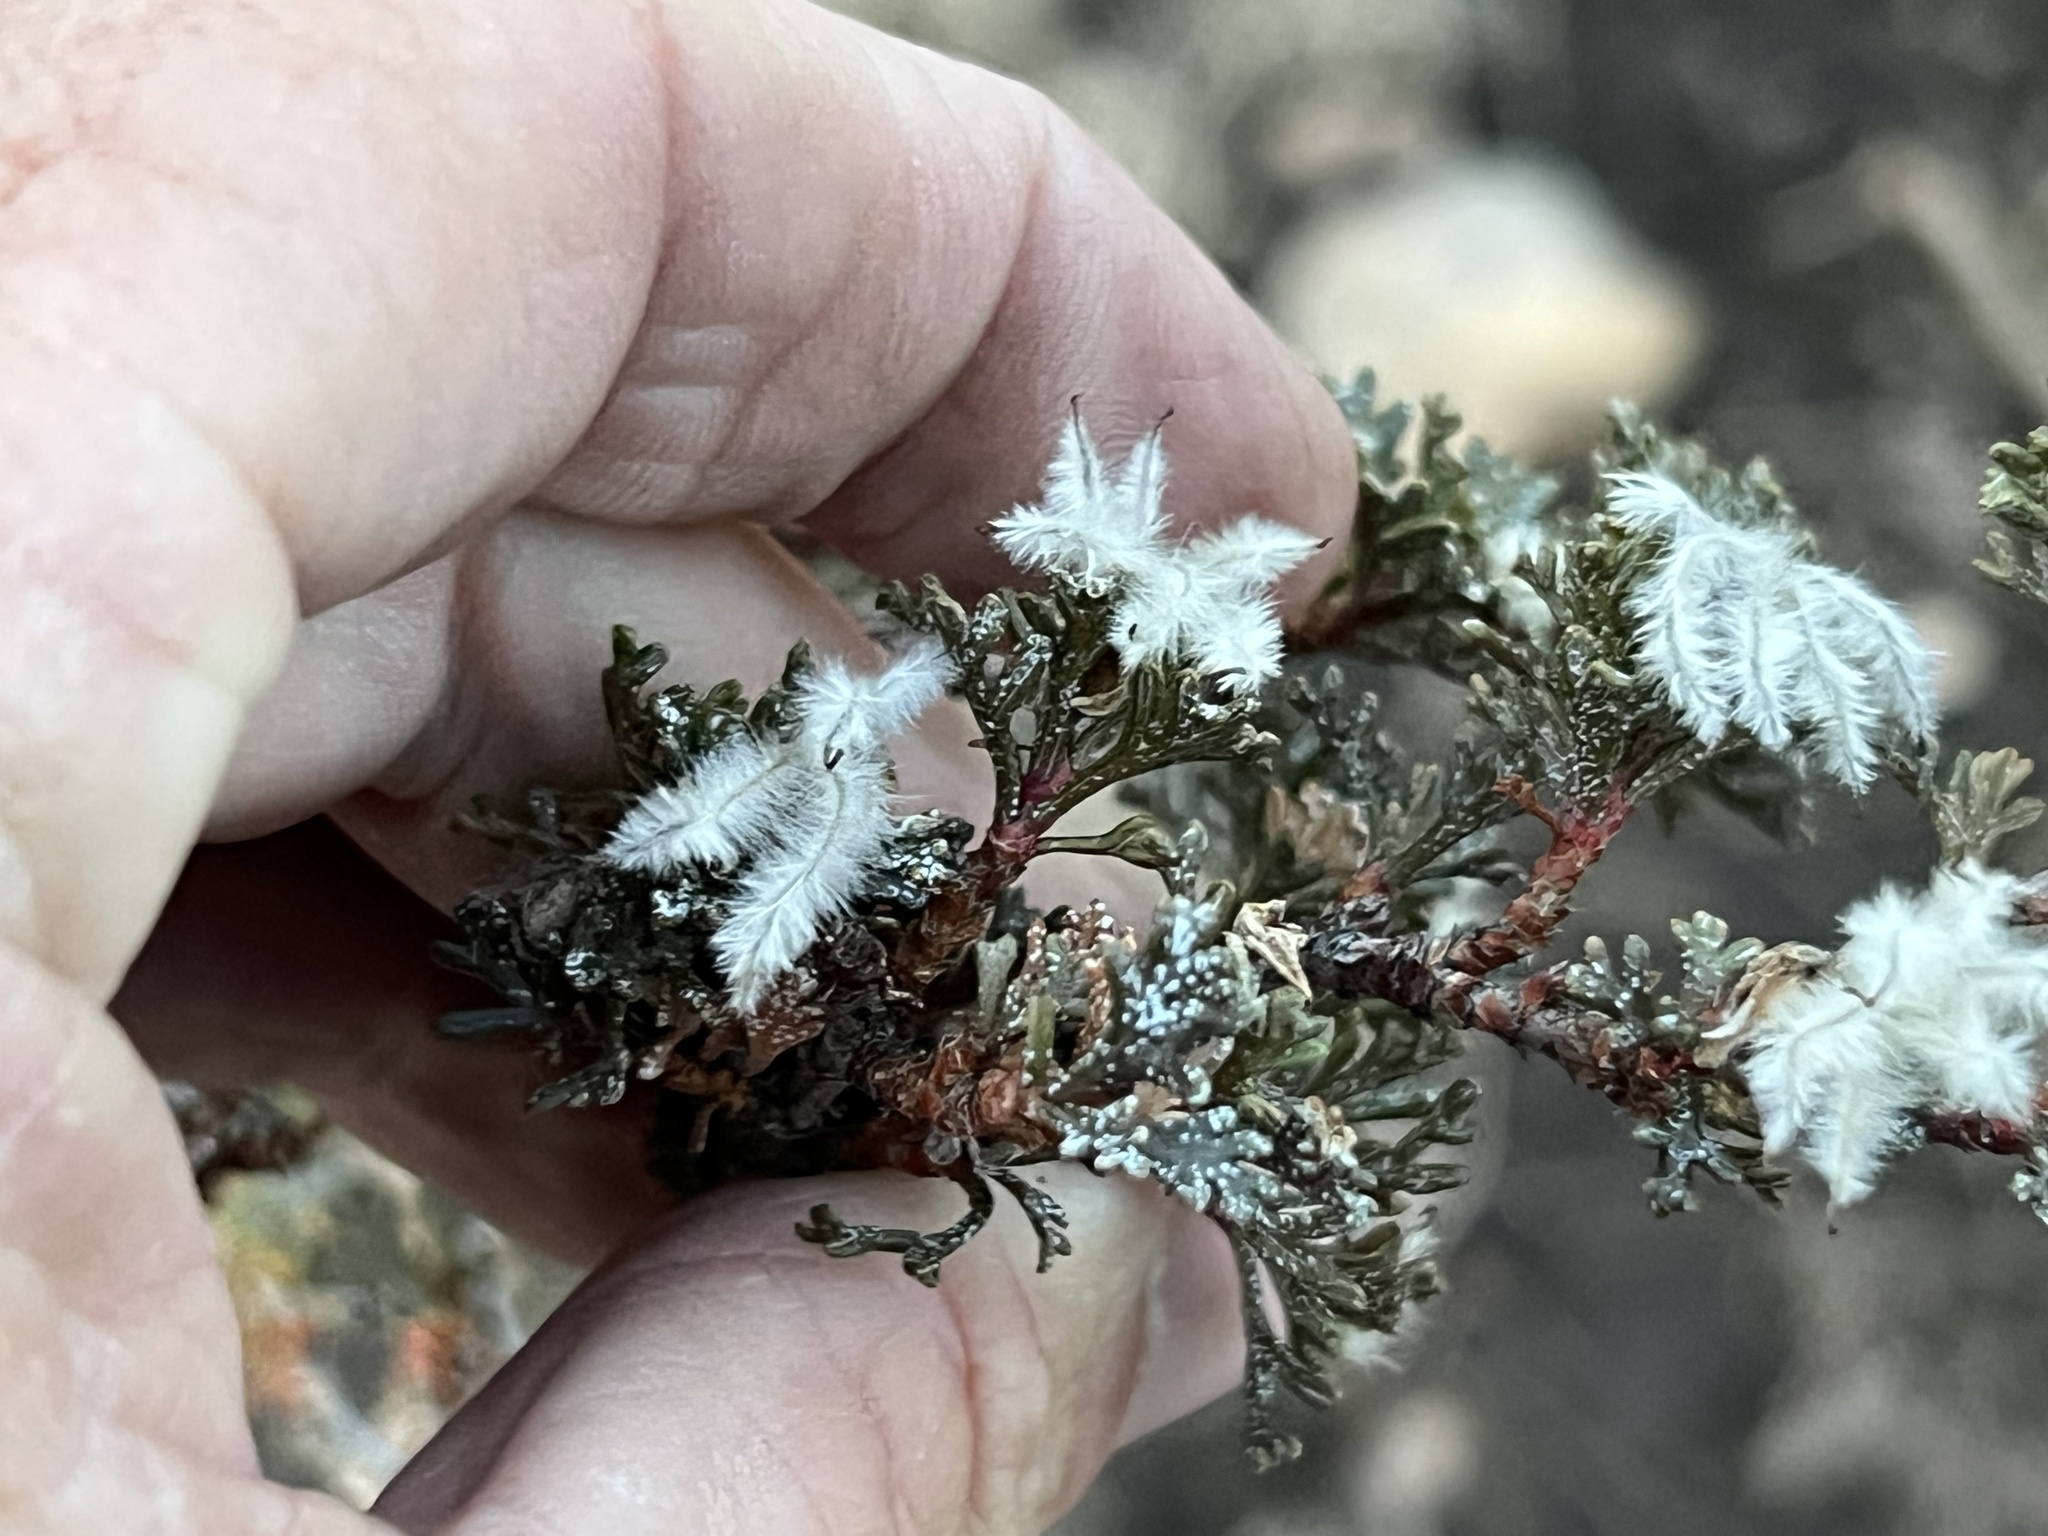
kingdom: Plantae
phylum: Tracheophyta
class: Magnoliopsida
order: Rosales
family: Rosaceae
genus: Purshia
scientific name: Purshia stansburiana
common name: Stansbury's cliffrose
